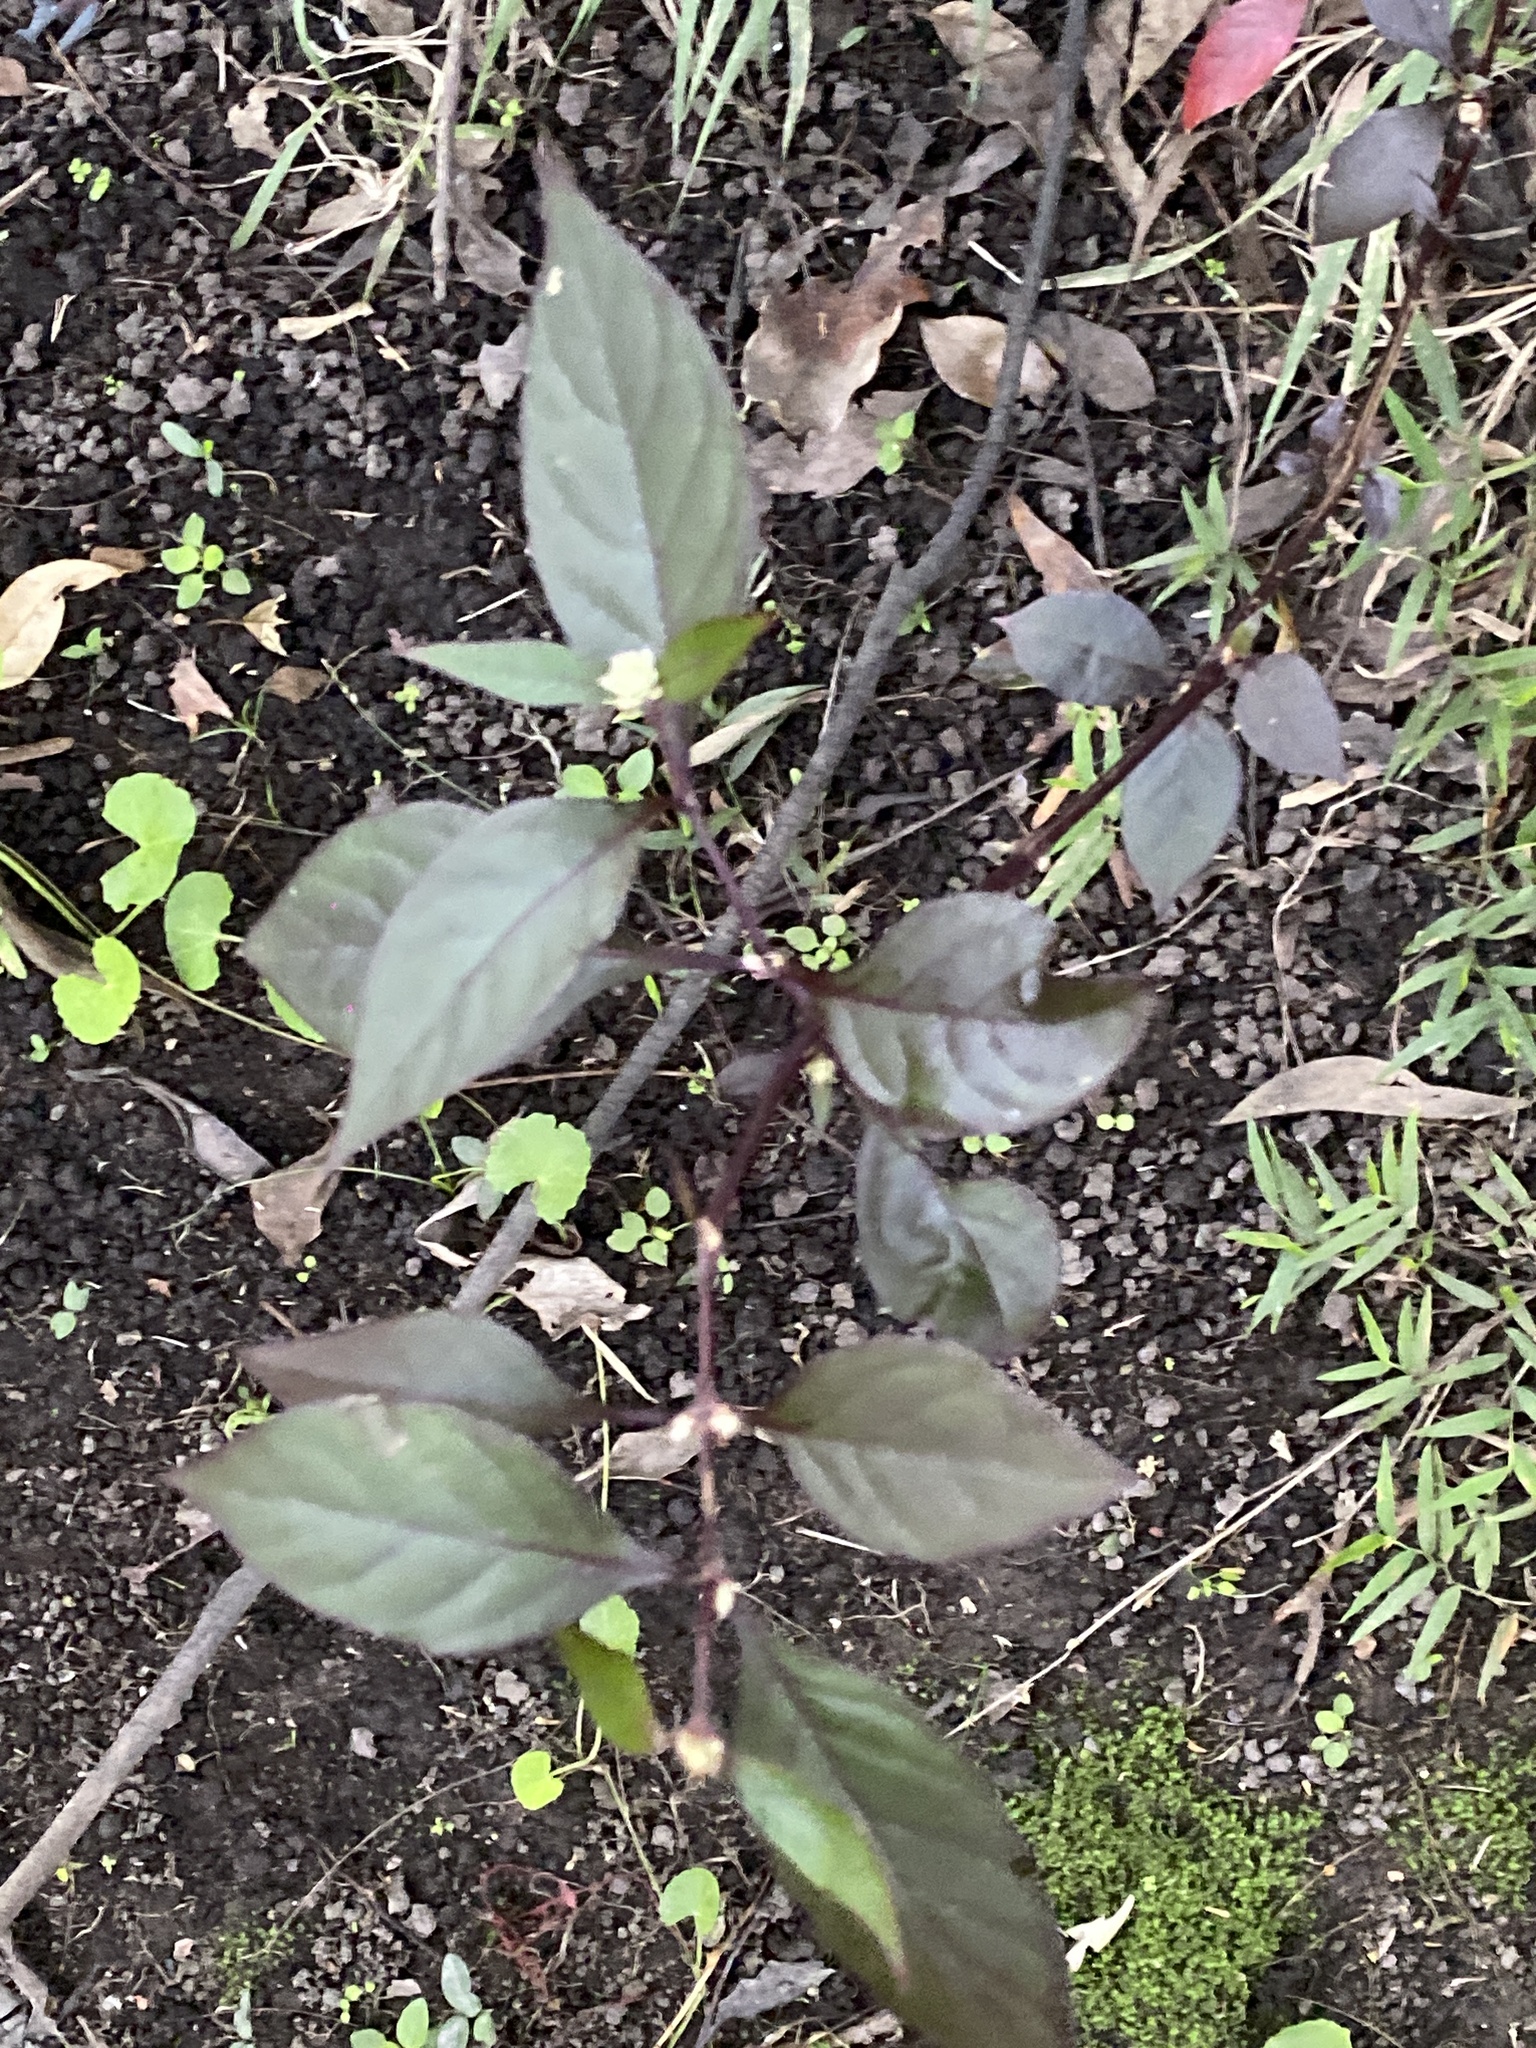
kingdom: Plantae
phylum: Tracheophyta
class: Magnoliopsida
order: Caryophyllales
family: Amaranthaceae
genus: Alternanthera
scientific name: Alternanthera brasiliana
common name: Brazilian joyweed
